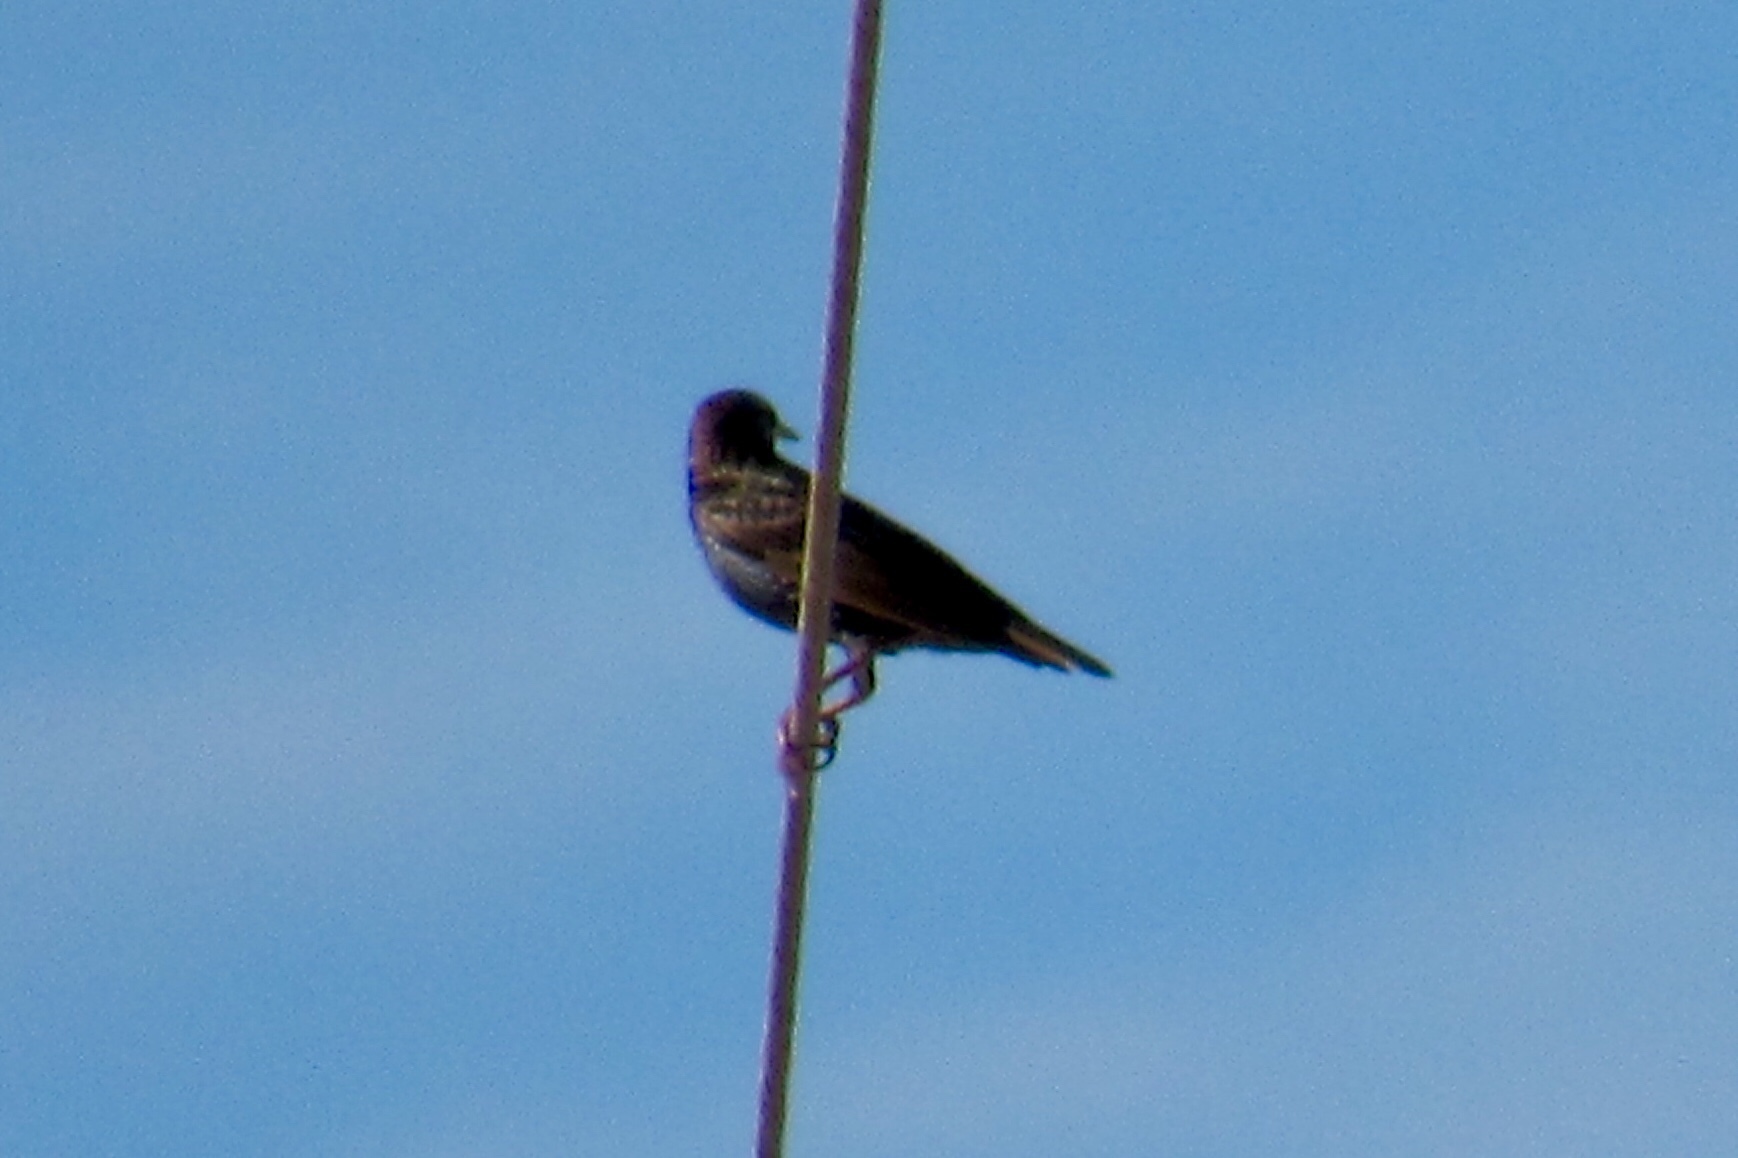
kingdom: Animalia
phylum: Chordata
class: Aves
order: Passeriformes
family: Sturnidae
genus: Sturnus
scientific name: Sturnus vulgaris
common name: Common starling
